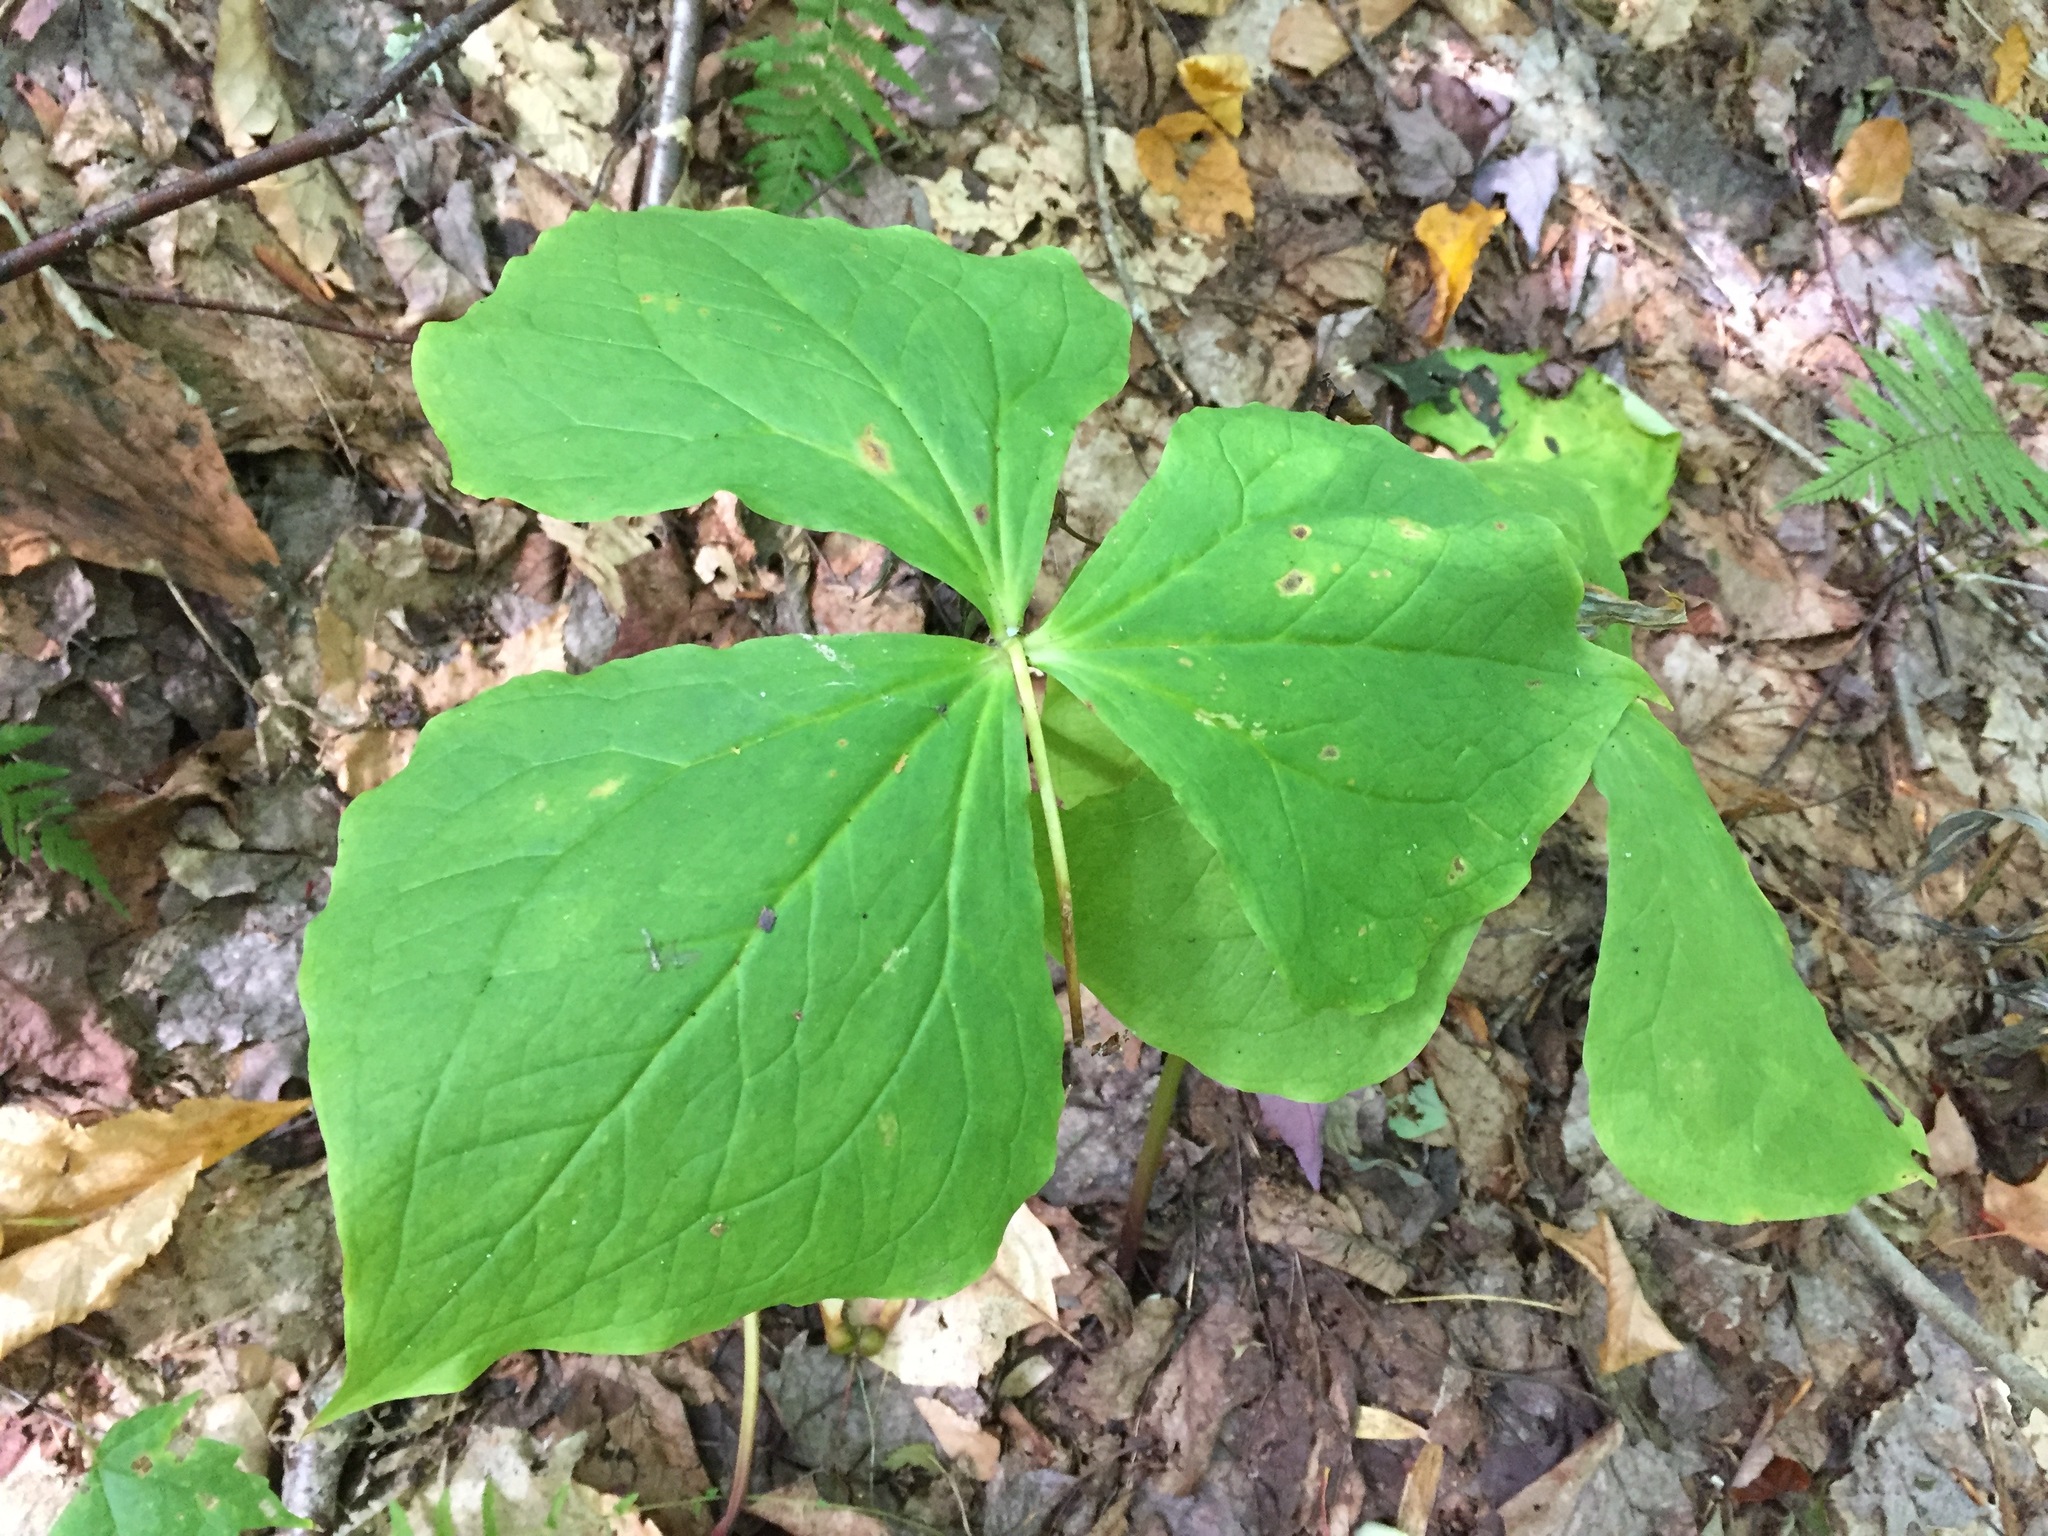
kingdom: Plantae
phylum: Tracheophyta
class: Liliopsida
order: Liliales
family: Melanthiaceae
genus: Trillium
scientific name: Trillium erectum
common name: Purple trillium
